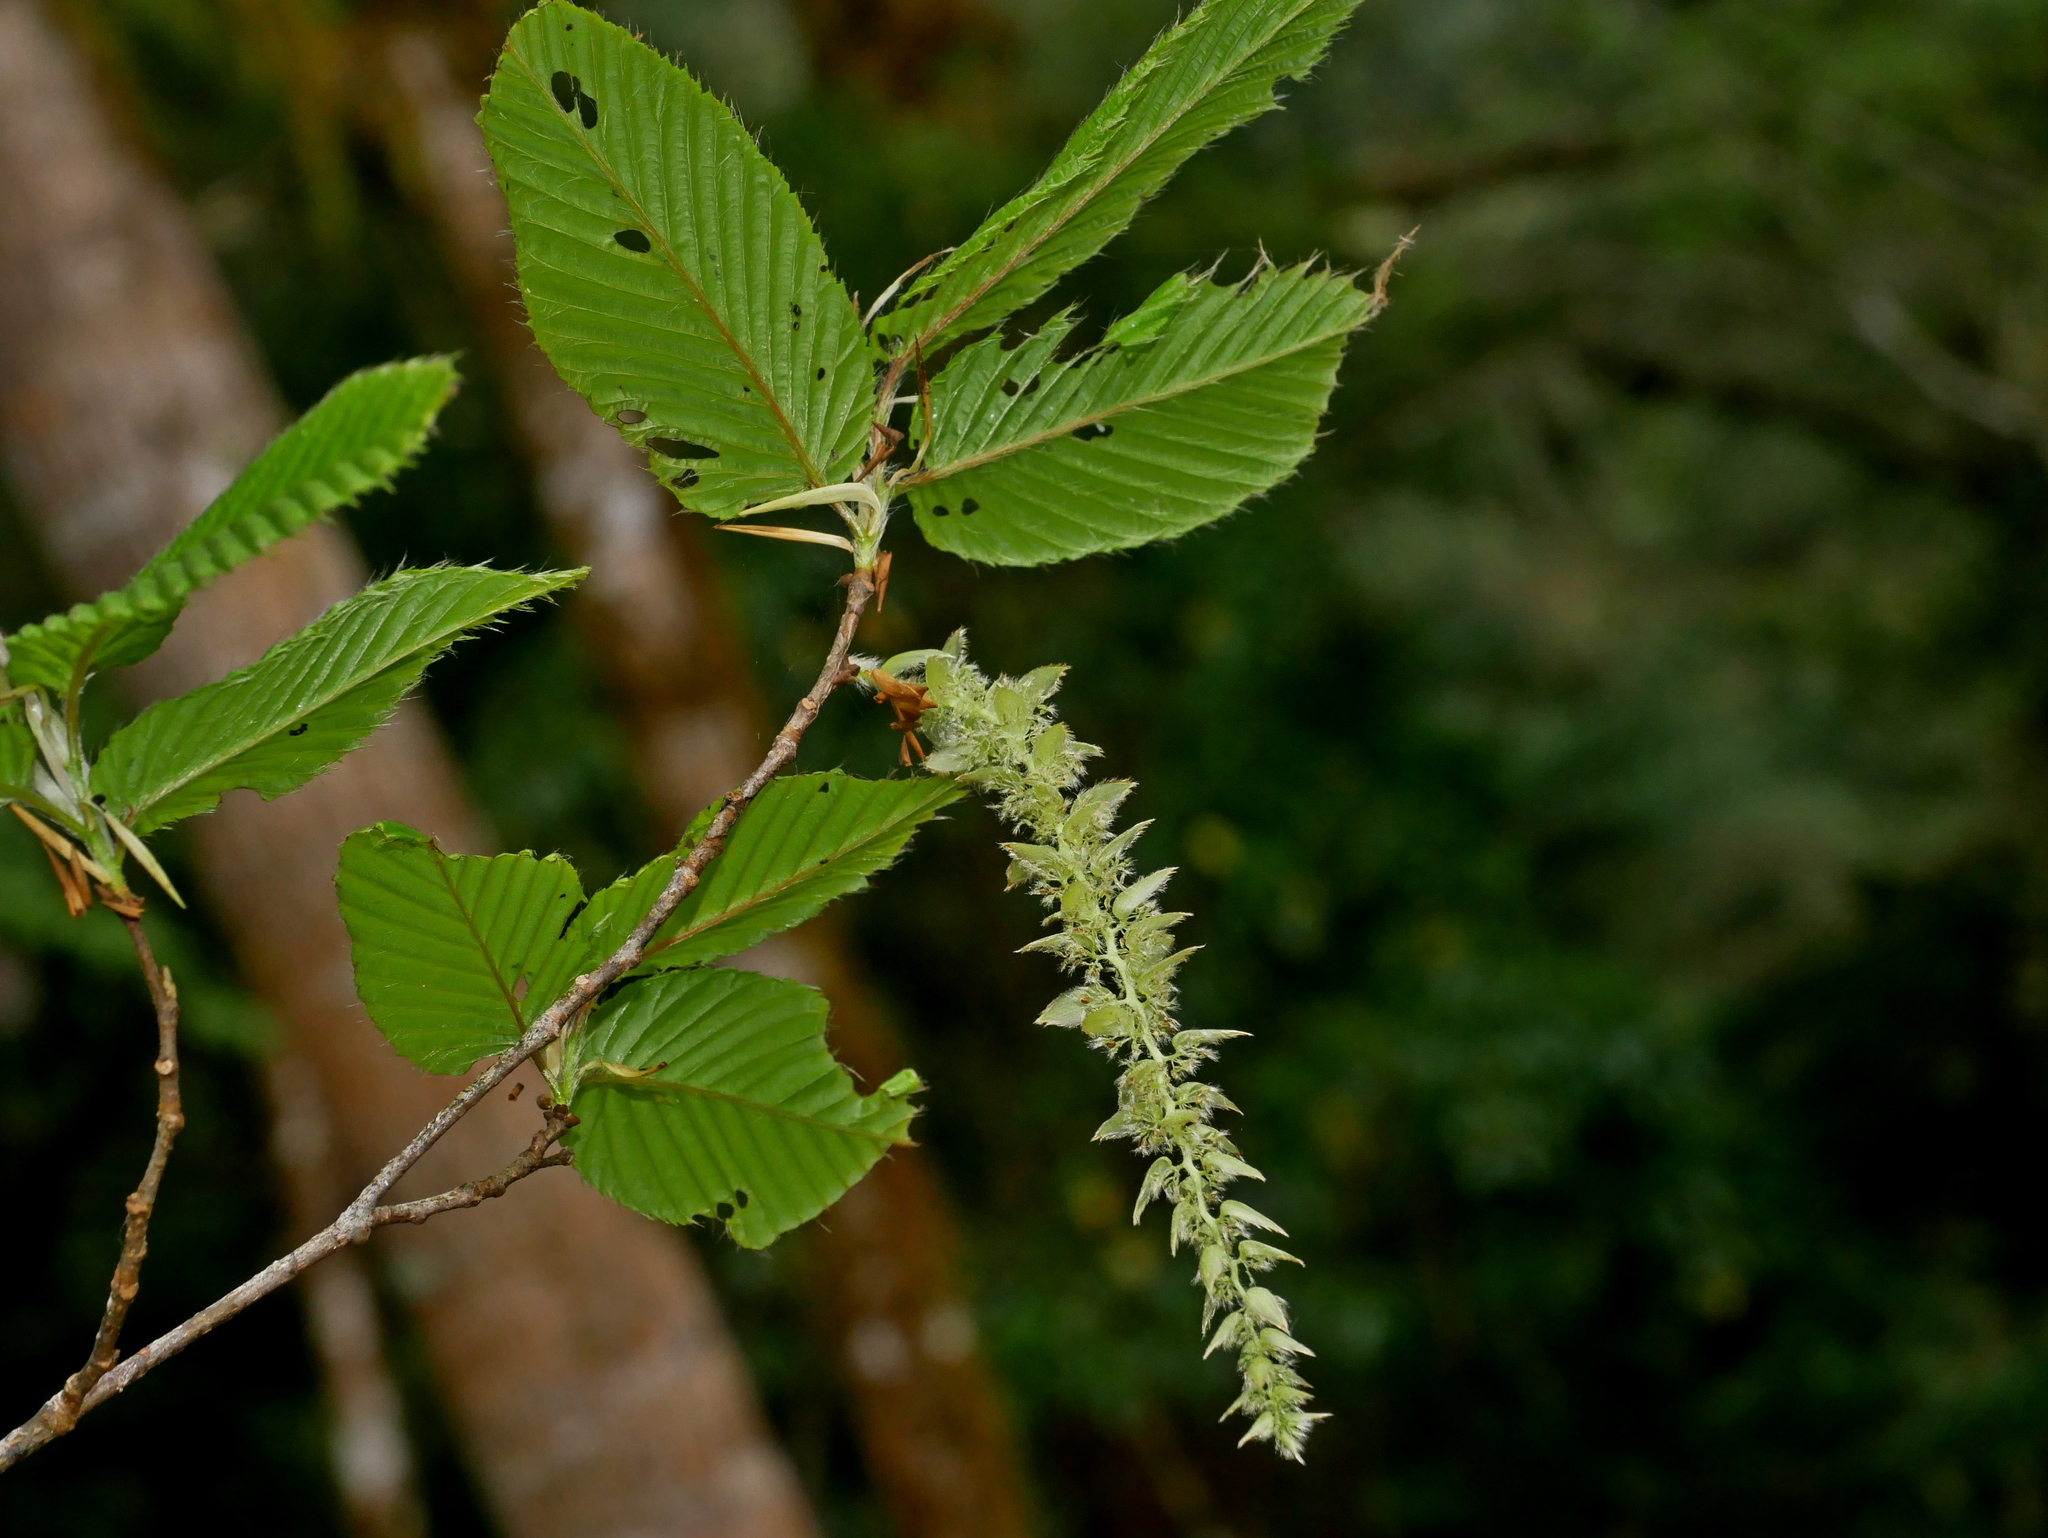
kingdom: Plantae
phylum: Tracheophyta
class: Magnoliopsida
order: Fagales
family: Betulaceae
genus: Carpinus
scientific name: Carpinus rankanensis
